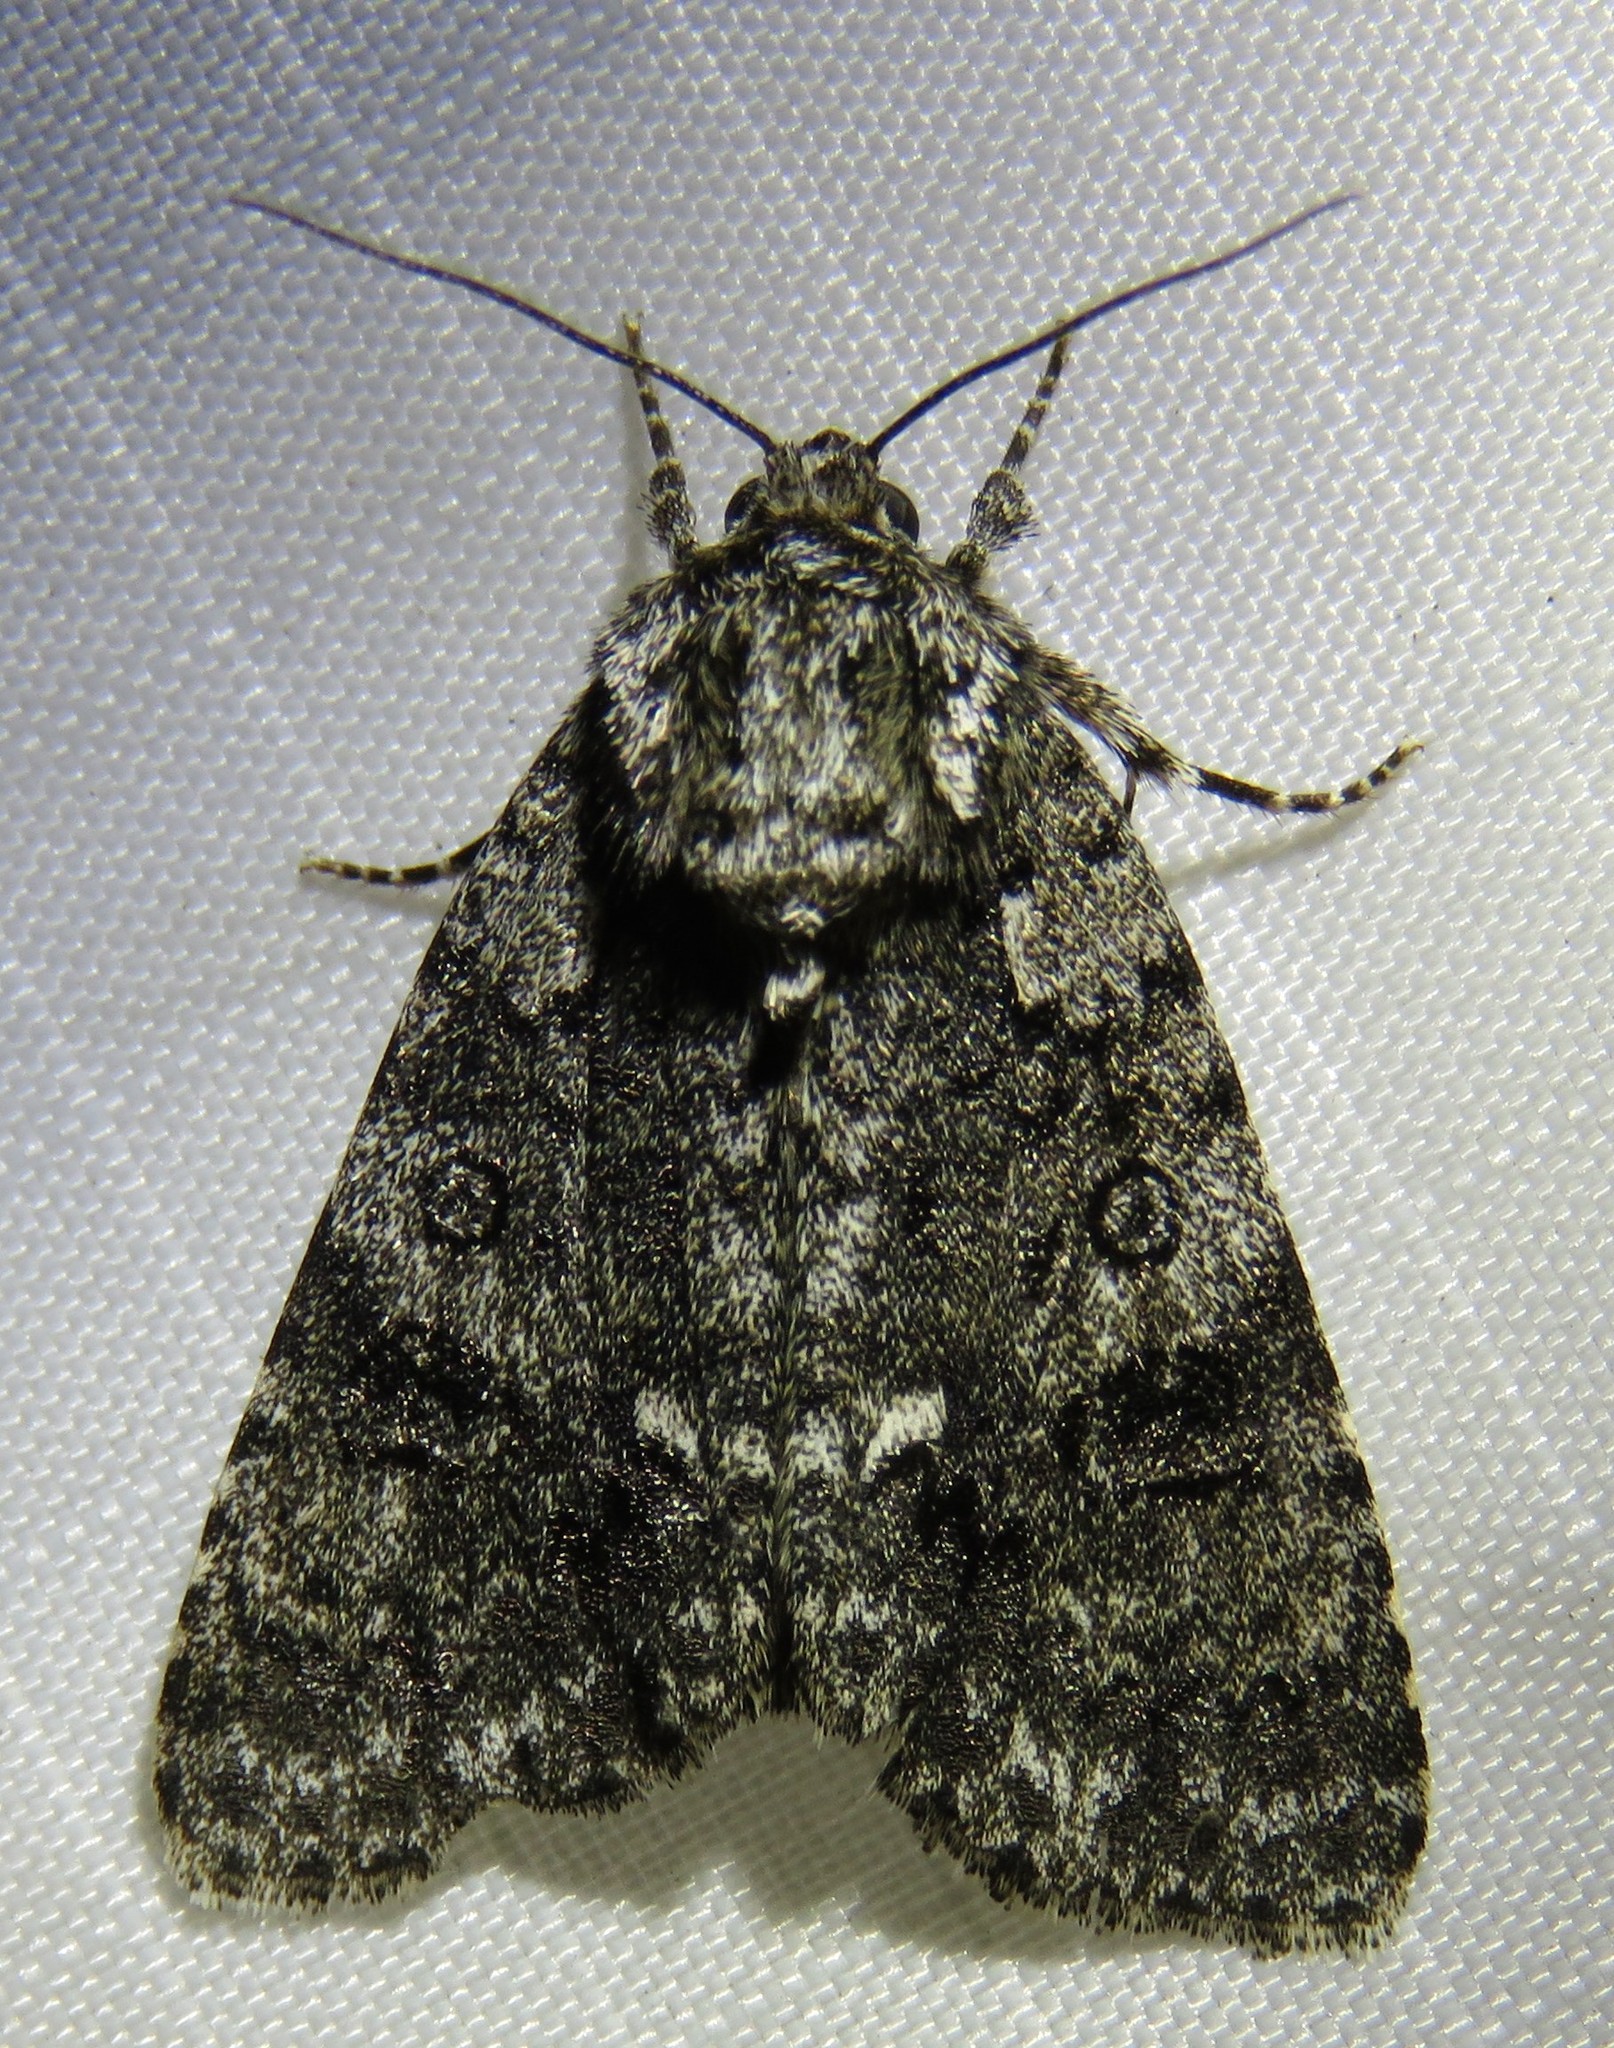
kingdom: Animalia
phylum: Arthropoda
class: Insecta
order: Lepidoptera
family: Noctuidae
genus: Acronicta
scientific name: Acronicta rumicis
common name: Knot grass
